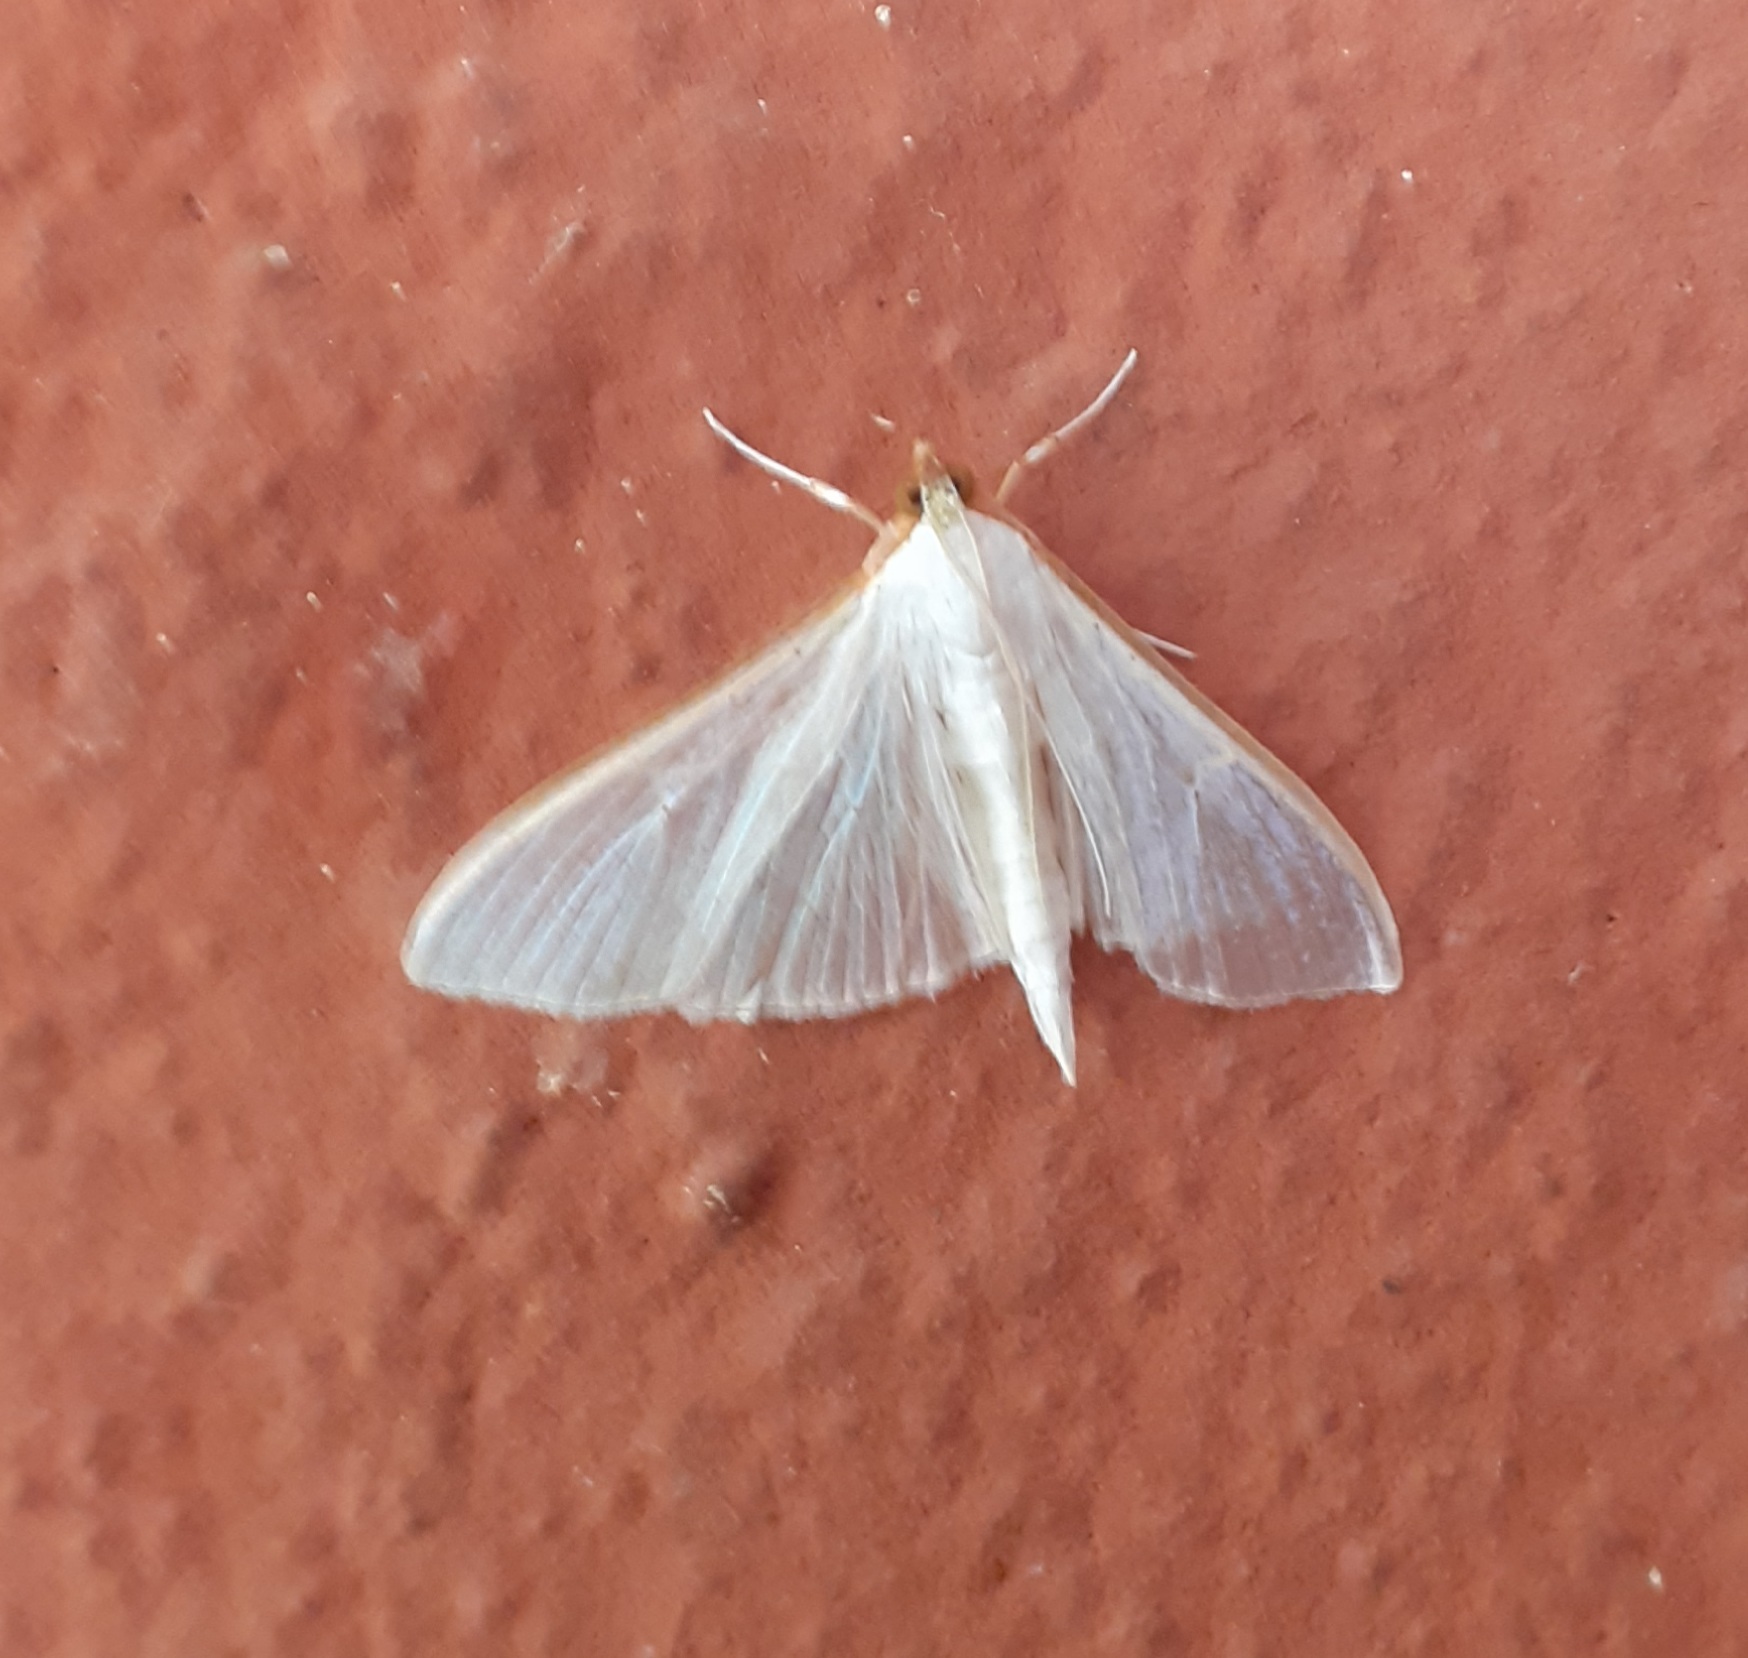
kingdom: Animalia
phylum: Arthropoda
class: Insecta
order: Lepidoptera
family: Crambidae
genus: Palpita
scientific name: Palpita vitrealis
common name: Olive-tree pearl
